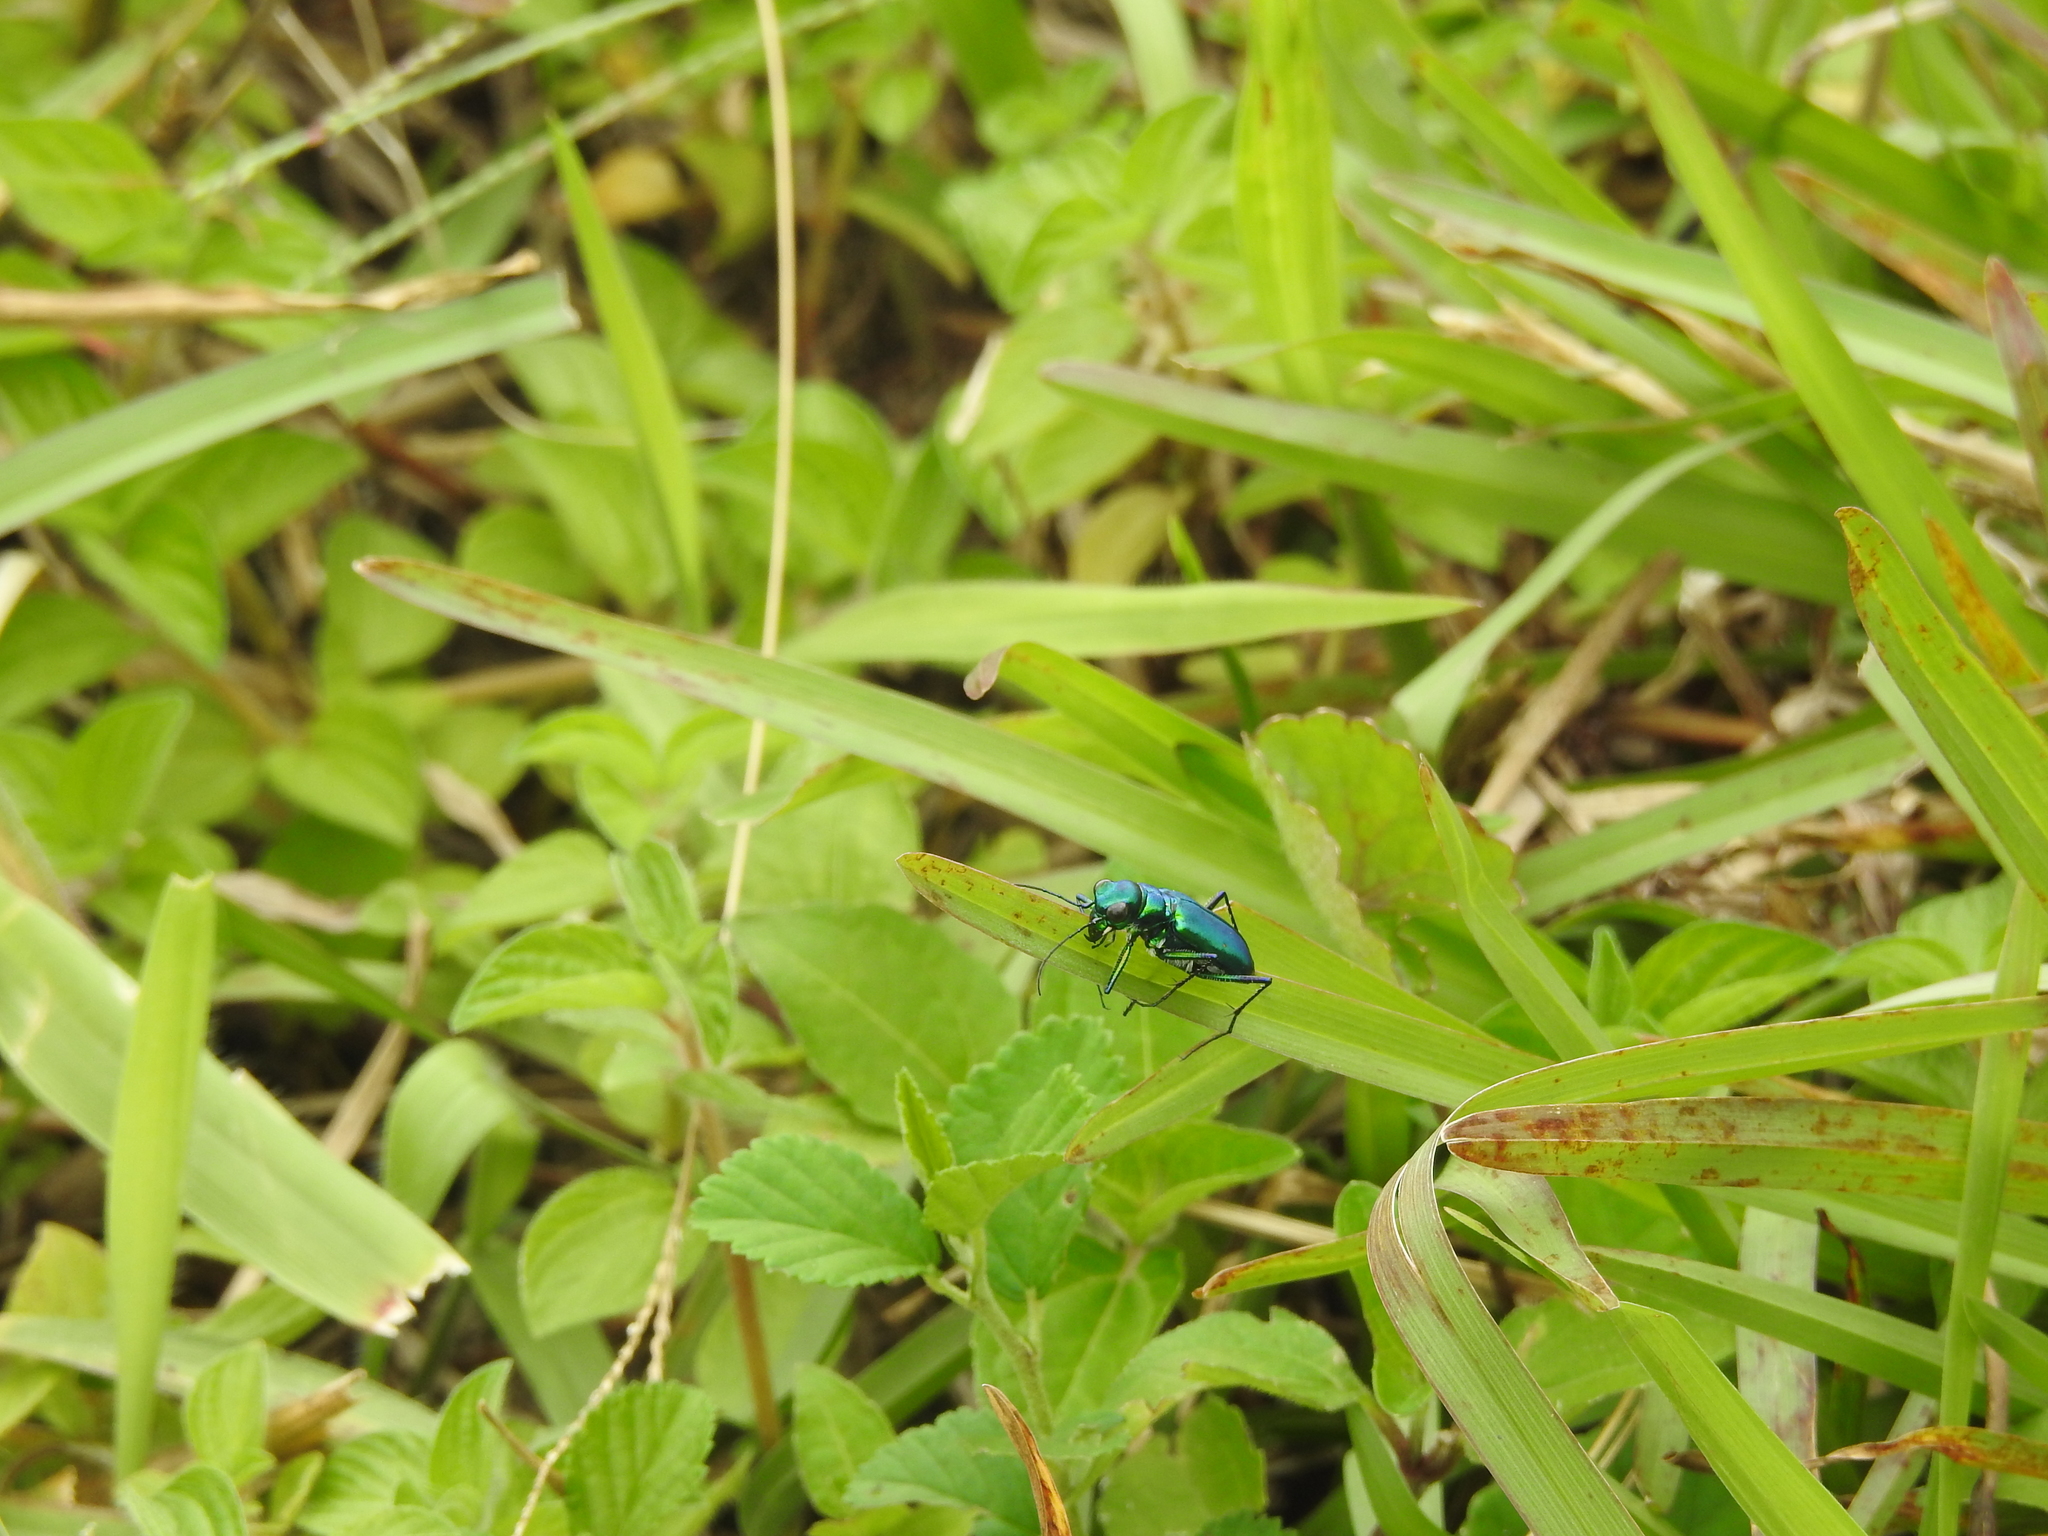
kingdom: Animalia
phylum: Arthropoda
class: Insecta
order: Coleoptera
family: Carabidae
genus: Cicindela
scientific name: Cicindela whithillii
